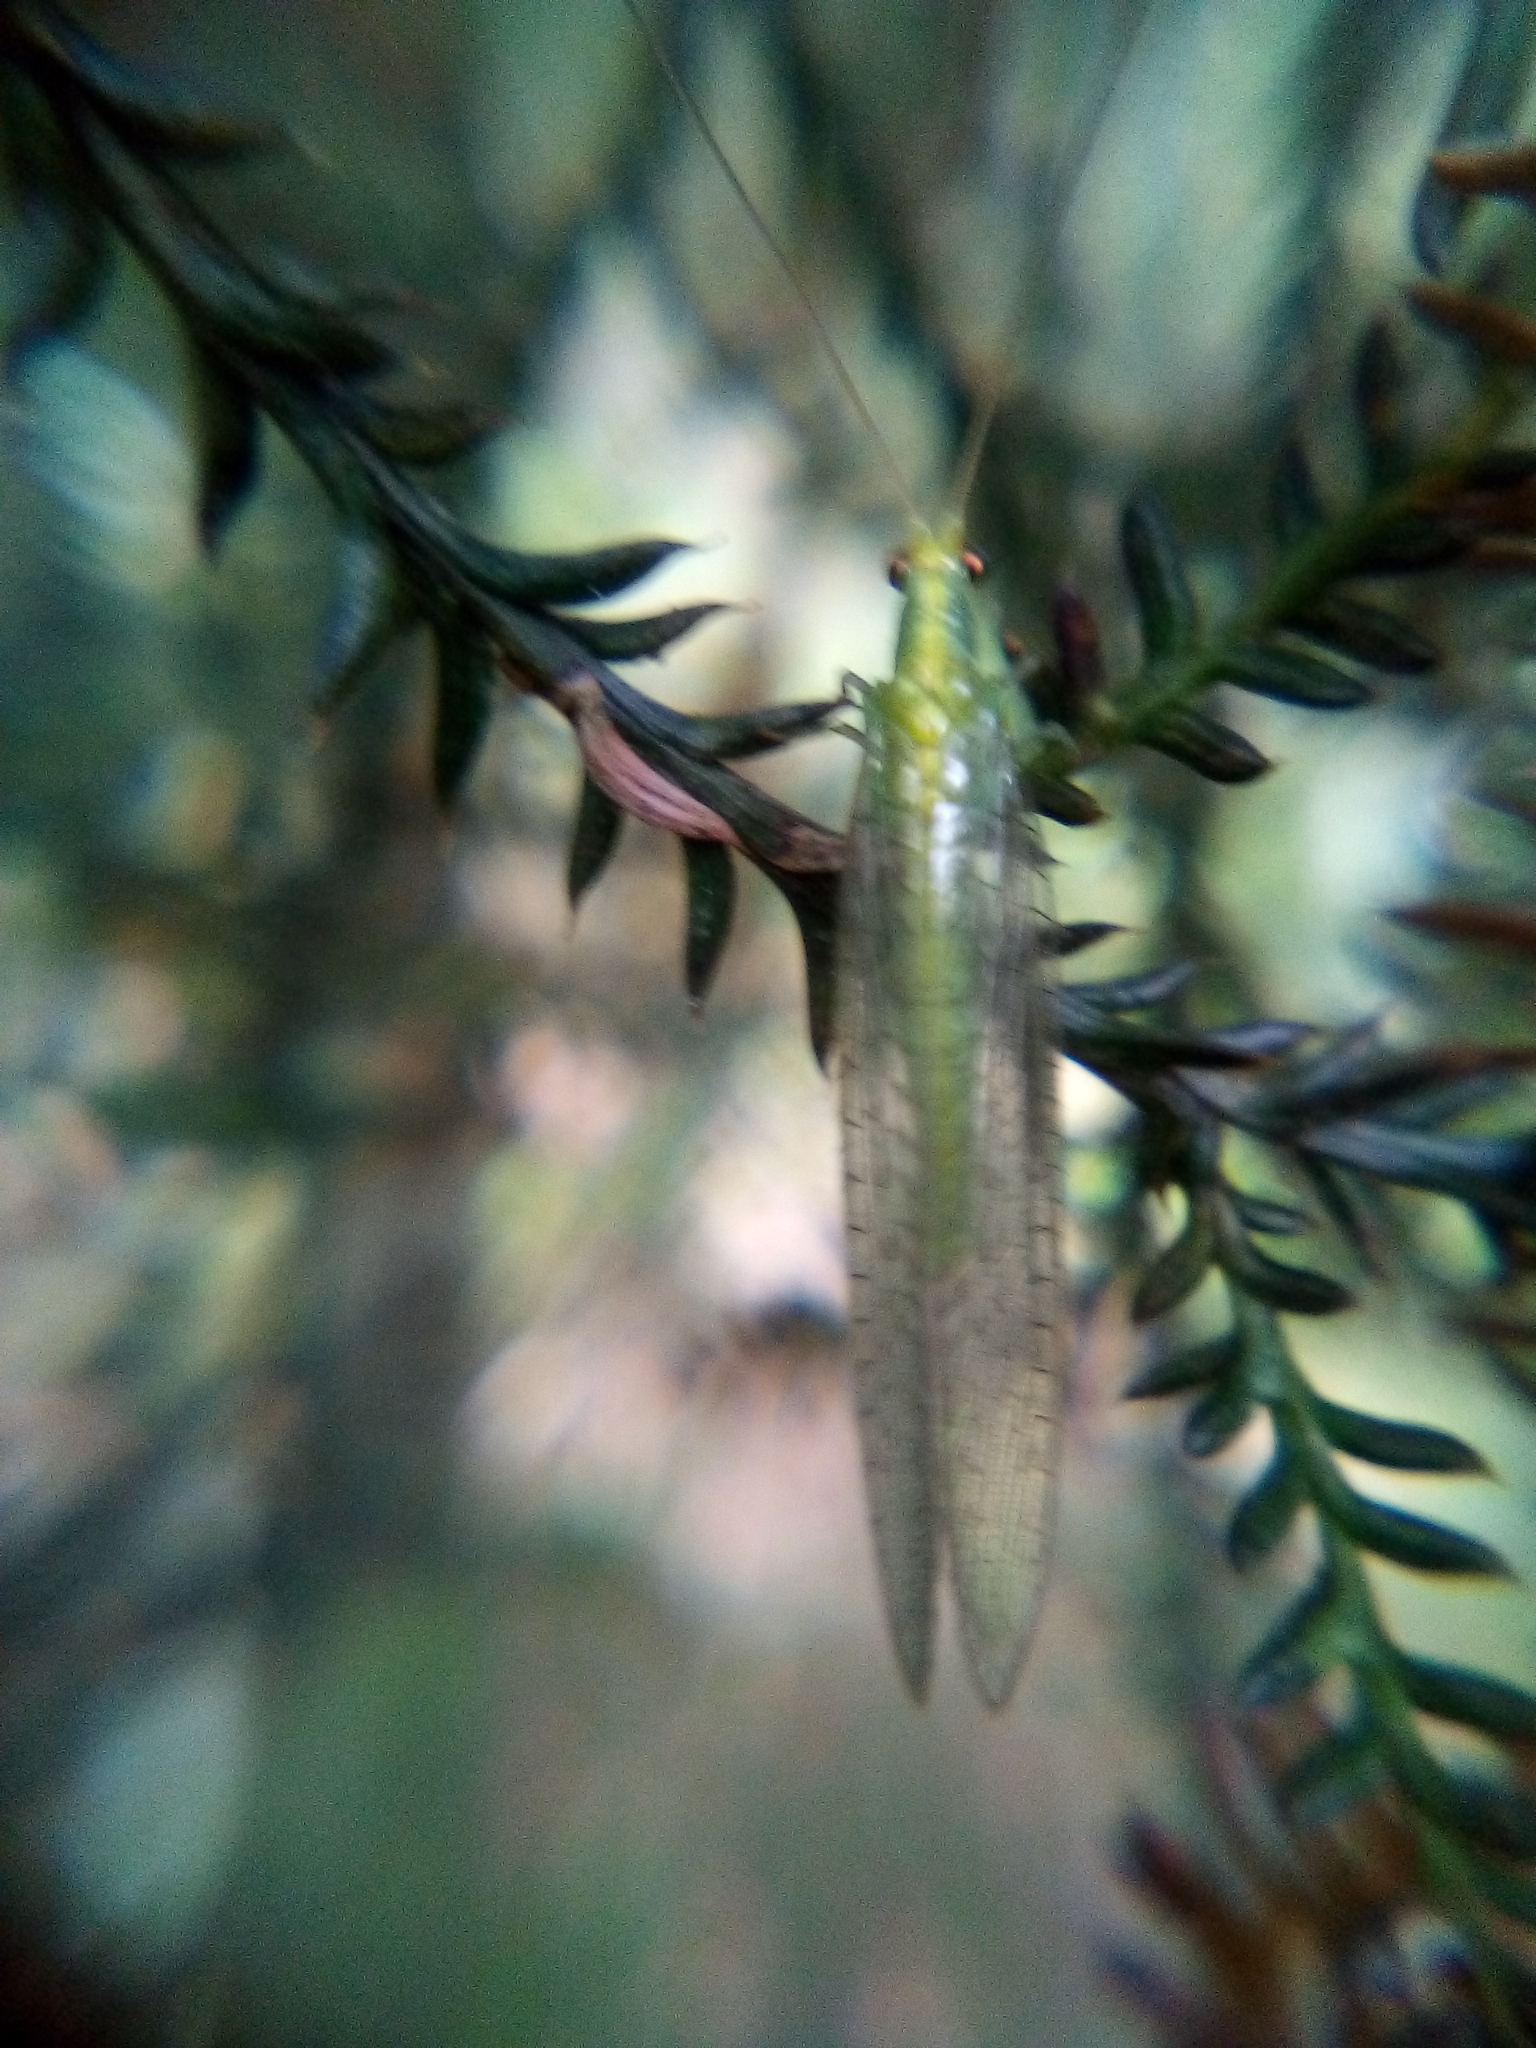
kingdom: Animalia
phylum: Arthropoda
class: Insecta
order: Neuroptera
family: Chrysopidae
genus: Mallada
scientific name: Mallada basalis
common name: Green lacewing
